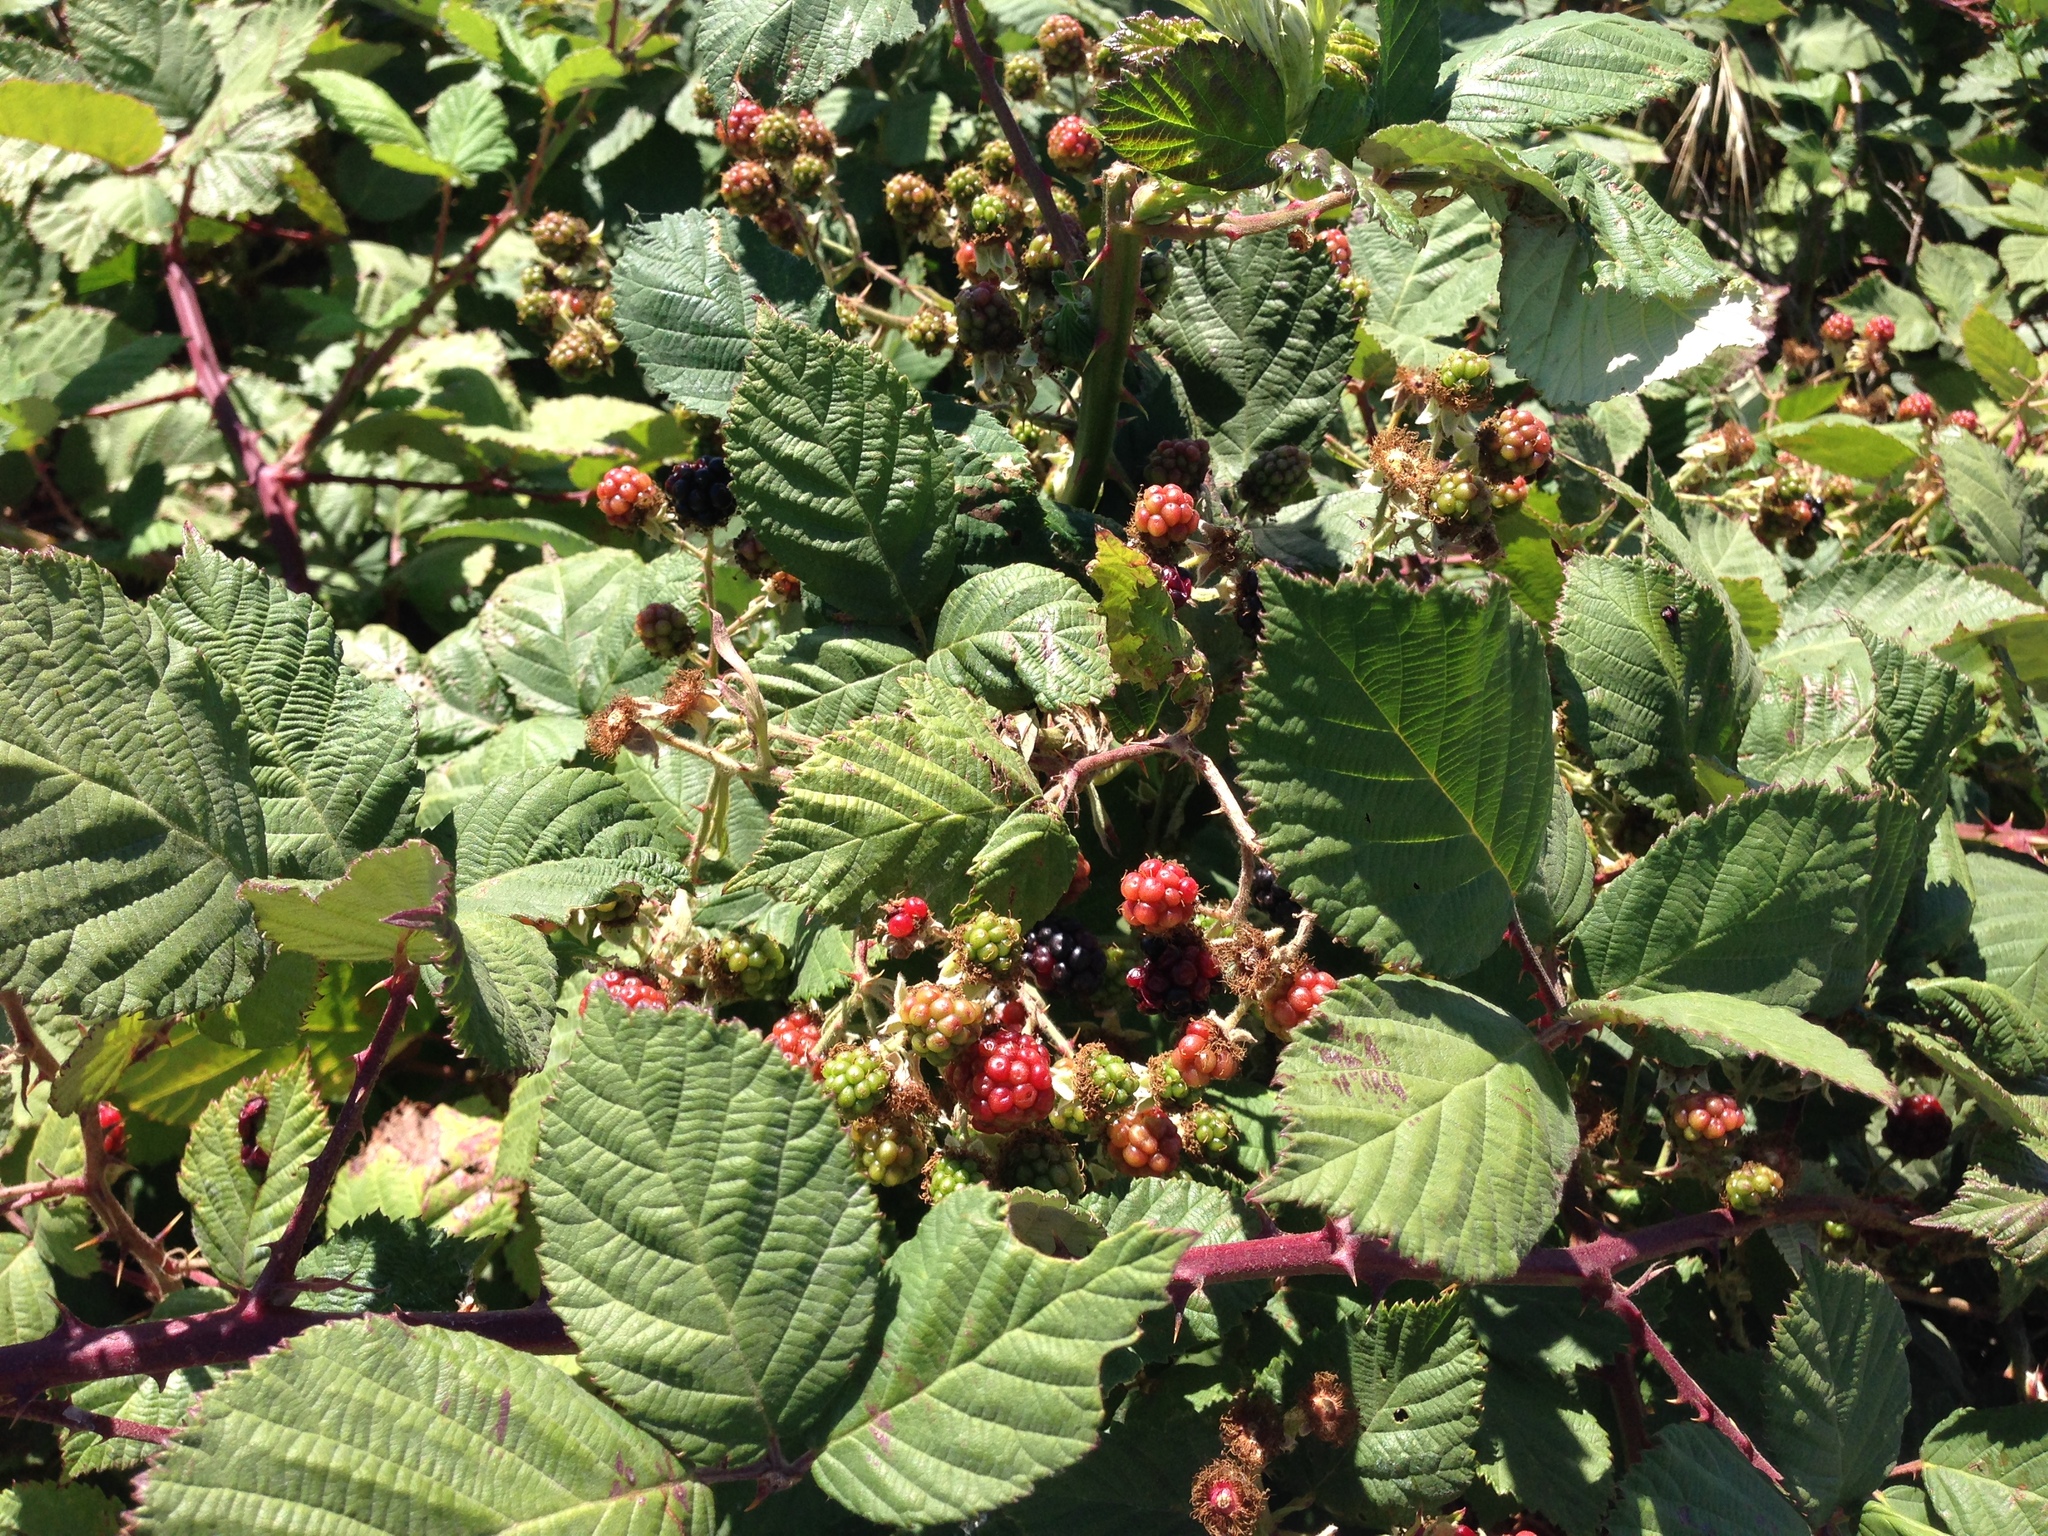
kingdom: Plantae
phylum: Tracheophyta
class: Magnoliopsida
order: Rosales
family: Rosaceae
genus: Rubus
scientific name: Rubus armeniacus
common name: Himalayan blackberry
